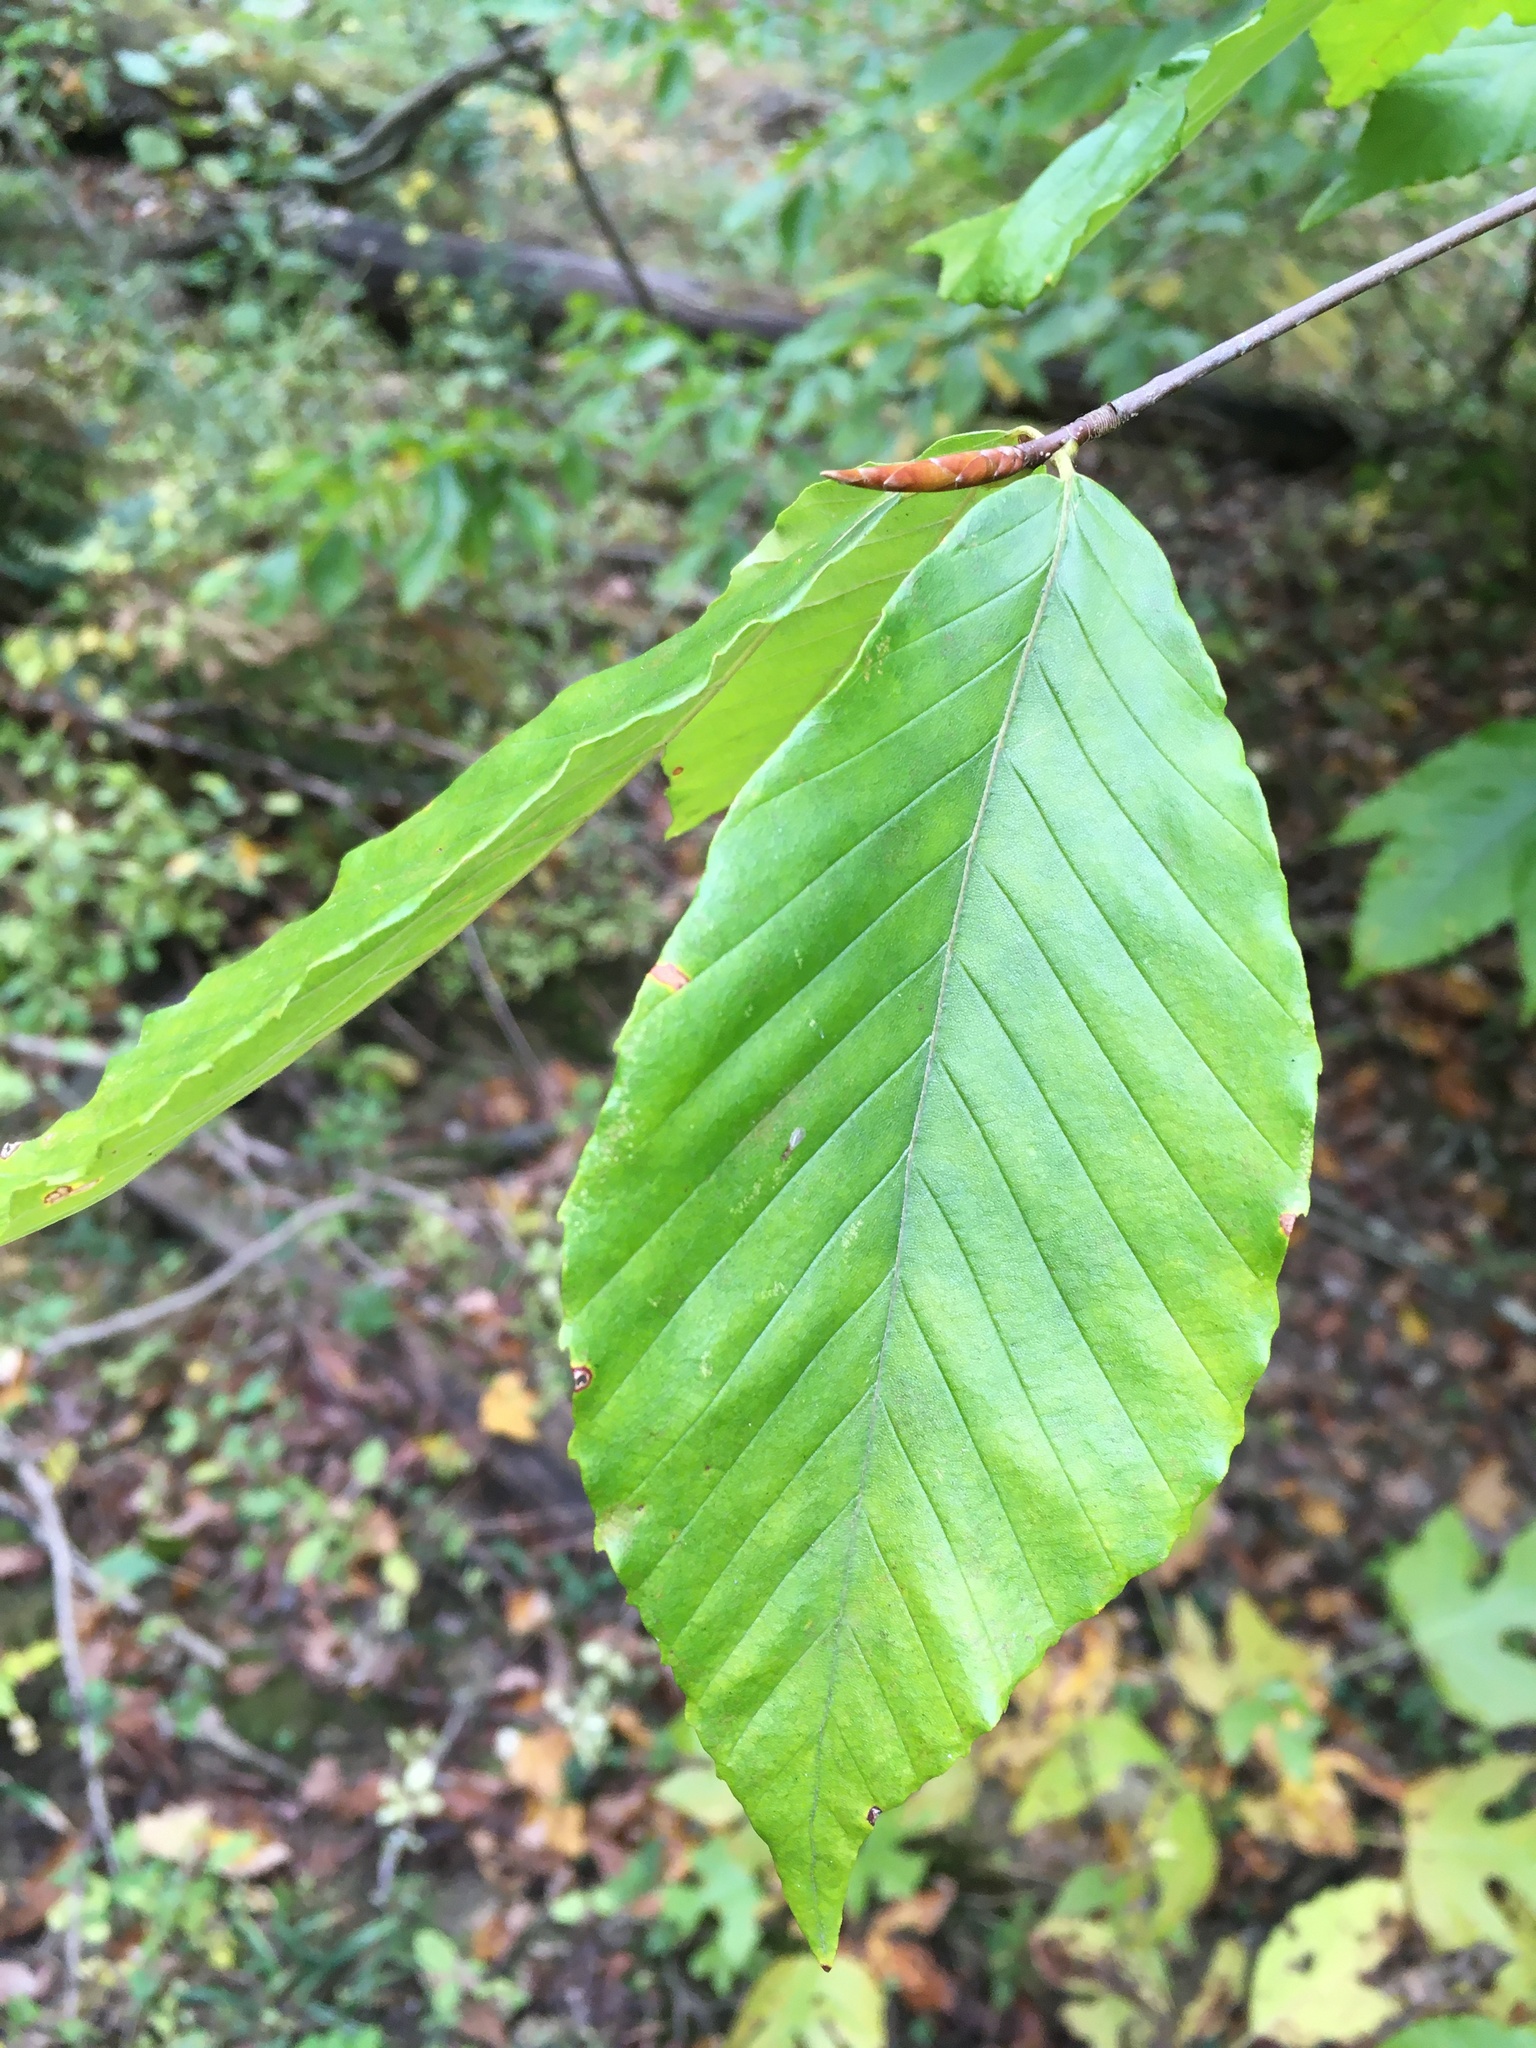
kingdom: Plantae
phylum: Tracheophyta
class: Magnoliopsida
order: Fagales
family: Fagaceae
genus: Fagus
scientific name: Fagus grandifolia
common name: American beech
